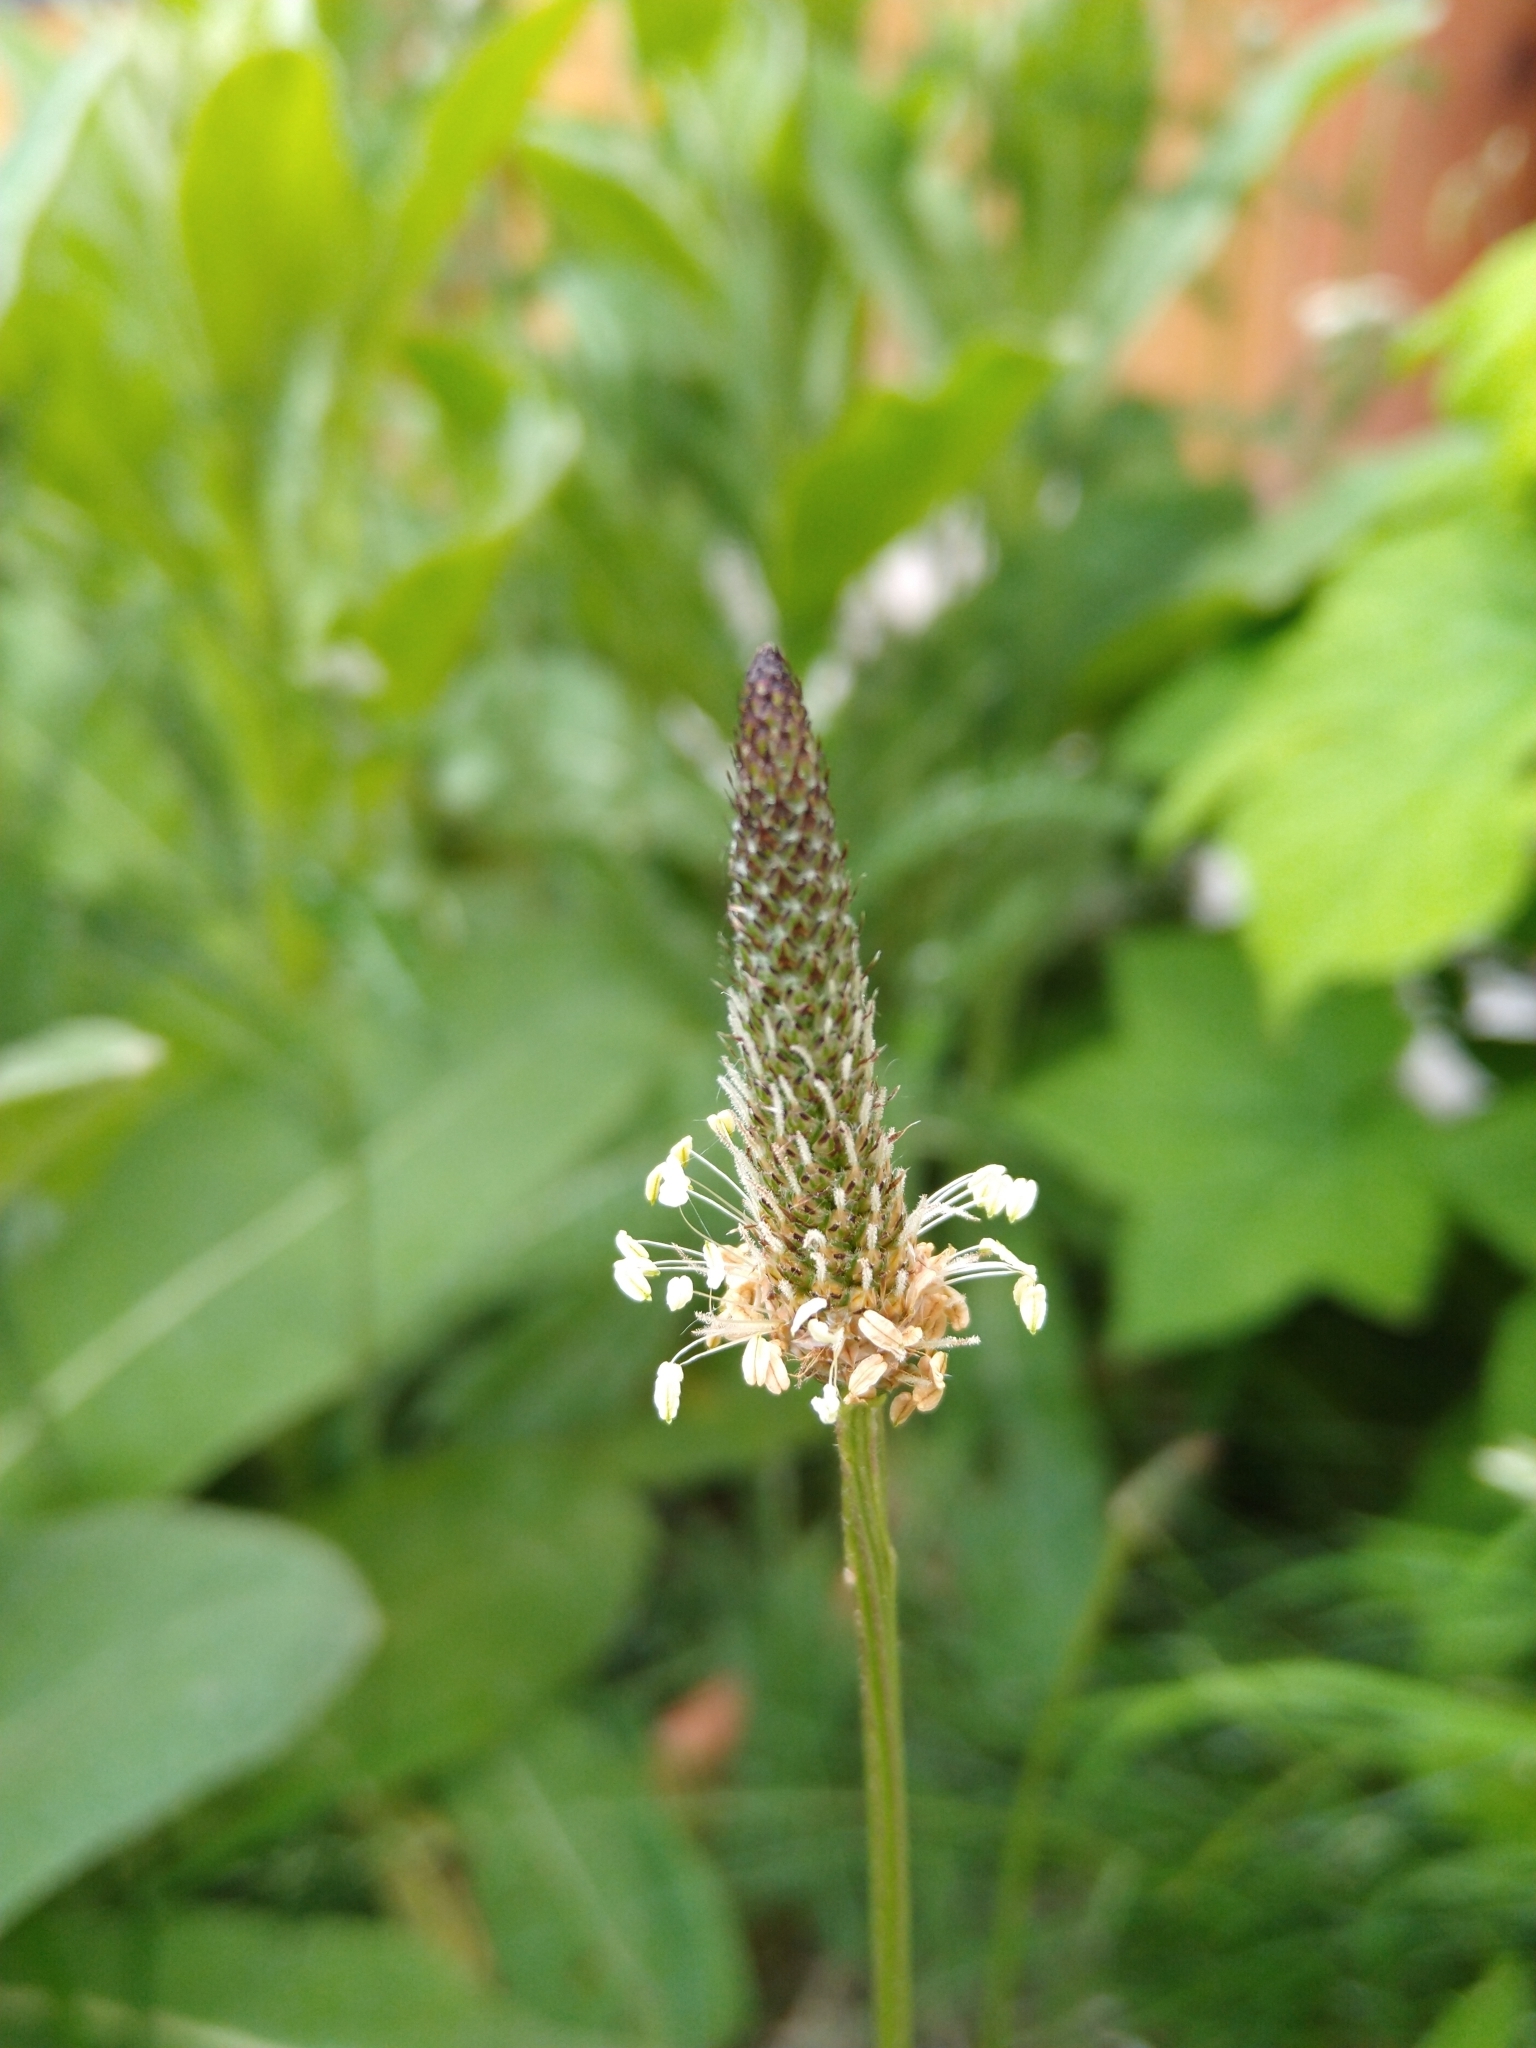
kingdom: Plantae
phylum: Tracheophyta
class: Magnoliopsida
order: Lamiales
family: Plantaginaceae
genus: Plantago
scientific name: Plantago lanceolata
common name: Ribwort plantain
